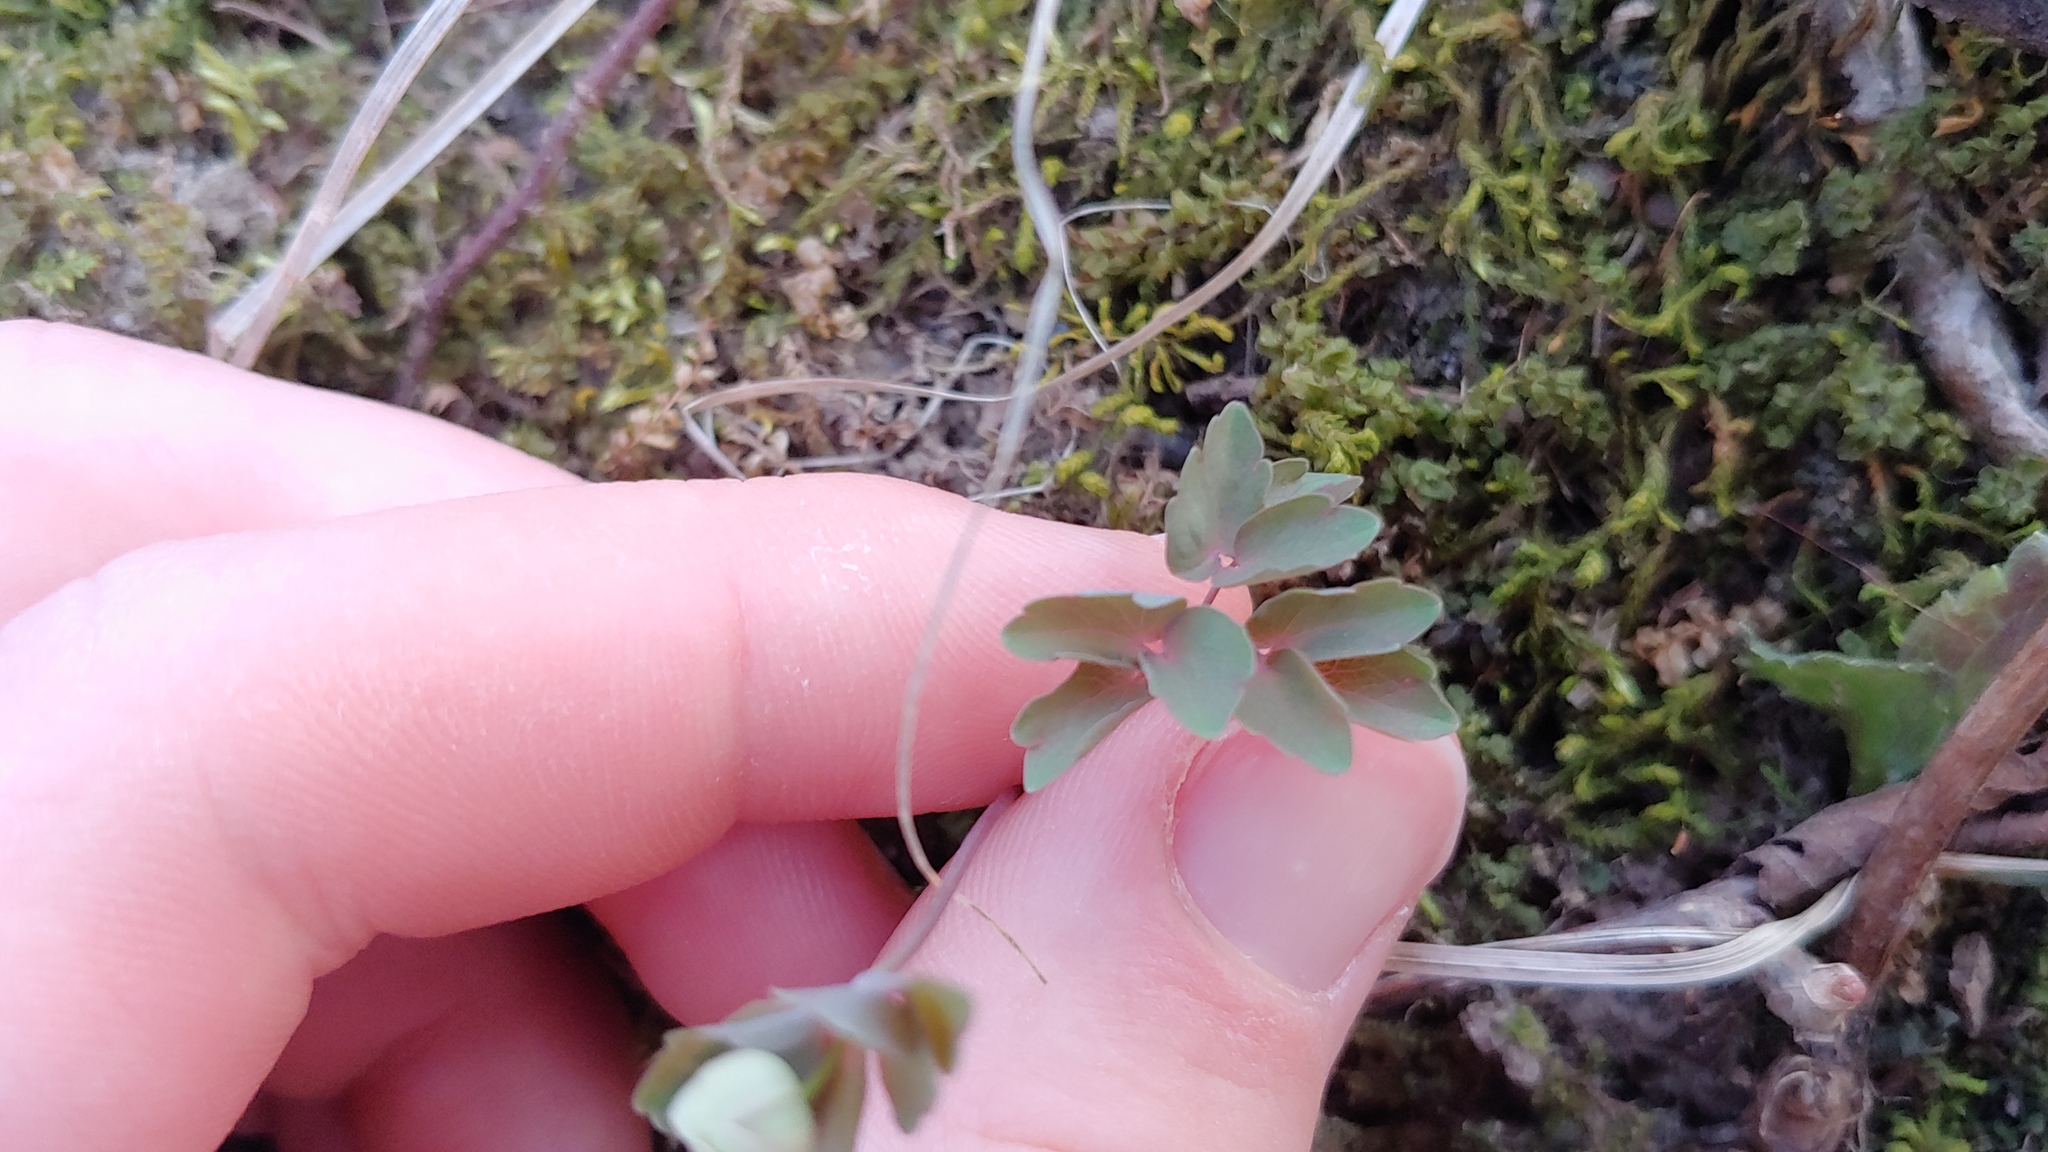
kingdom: Plantae
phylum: Tracheophyta
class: Magnoliopsida
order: Ranunculales
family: Ranunculaceae
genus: Thalictrum
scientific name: Thalictrum thalictroides
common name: Rue-anemone
